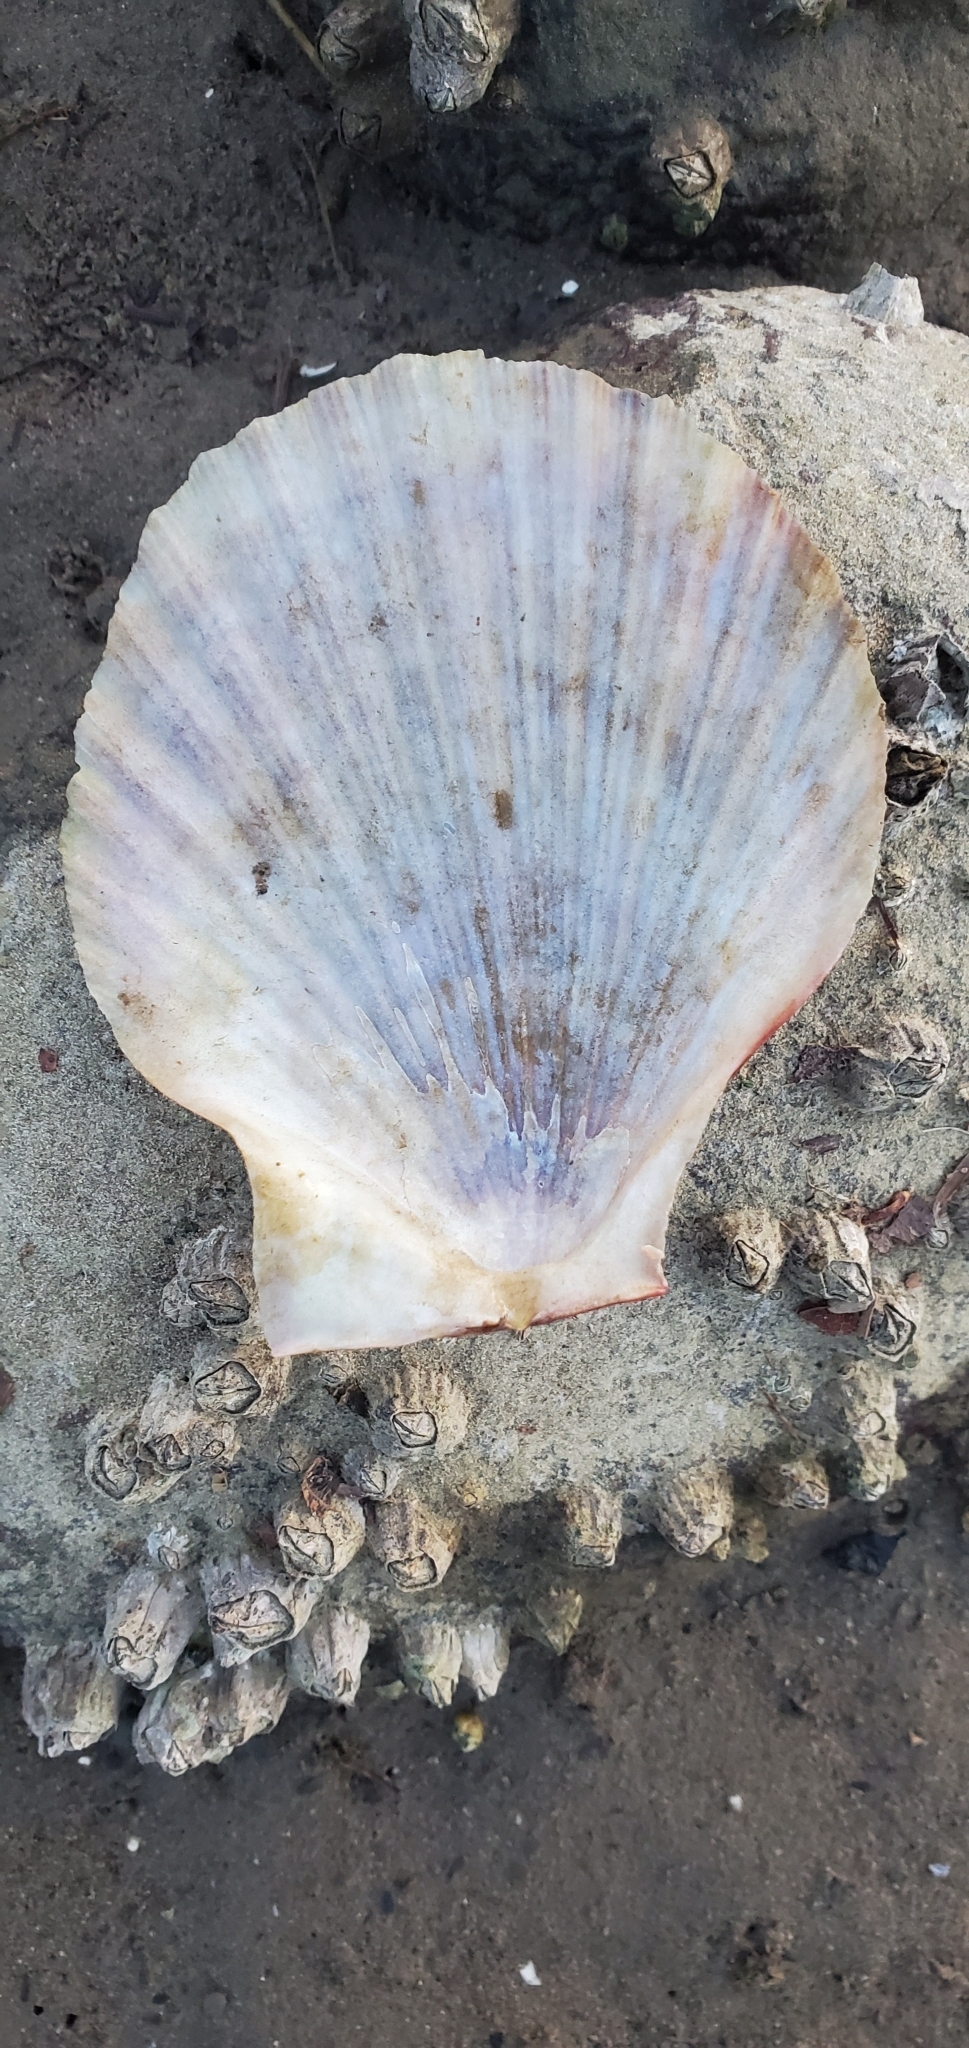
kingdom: Animalia
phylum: Mollusca
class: Bivalvia
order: Pectinida
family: Pectinidae
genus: Chlamys
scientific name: Chlamys hastata
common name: Spear scallop
